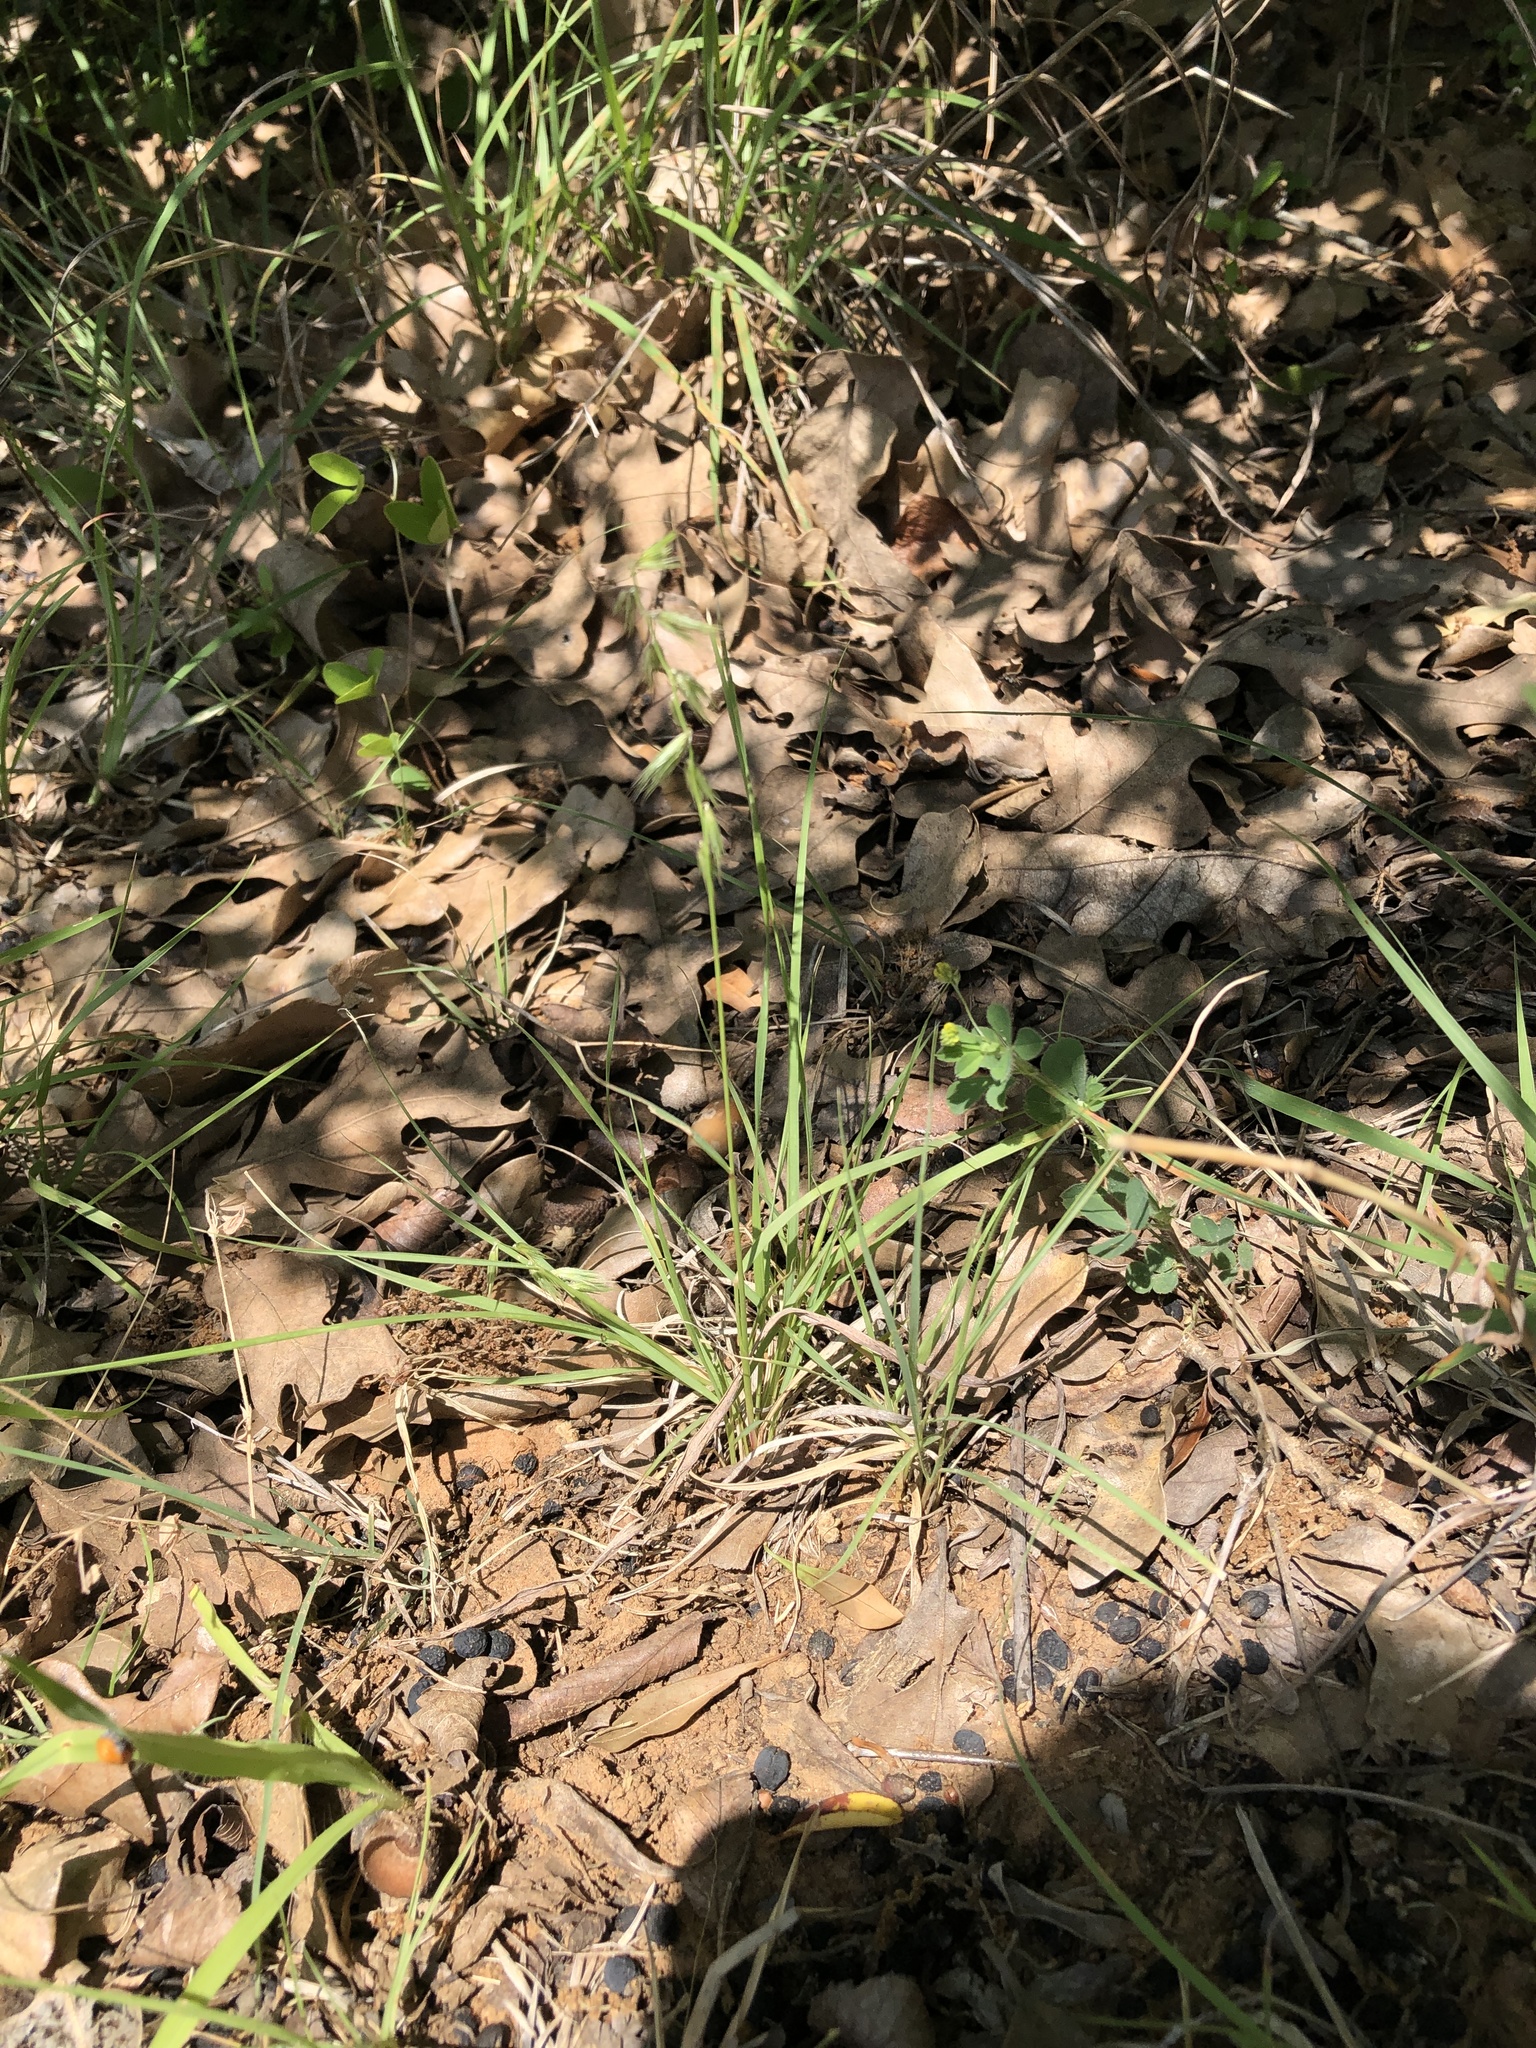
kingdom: Plantae
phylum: Tracheophyta
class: Liliopsida
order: Poales
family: Poaceae
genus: Bouteloua
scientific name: Bouteloua rigidiseta
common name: Texas grama
